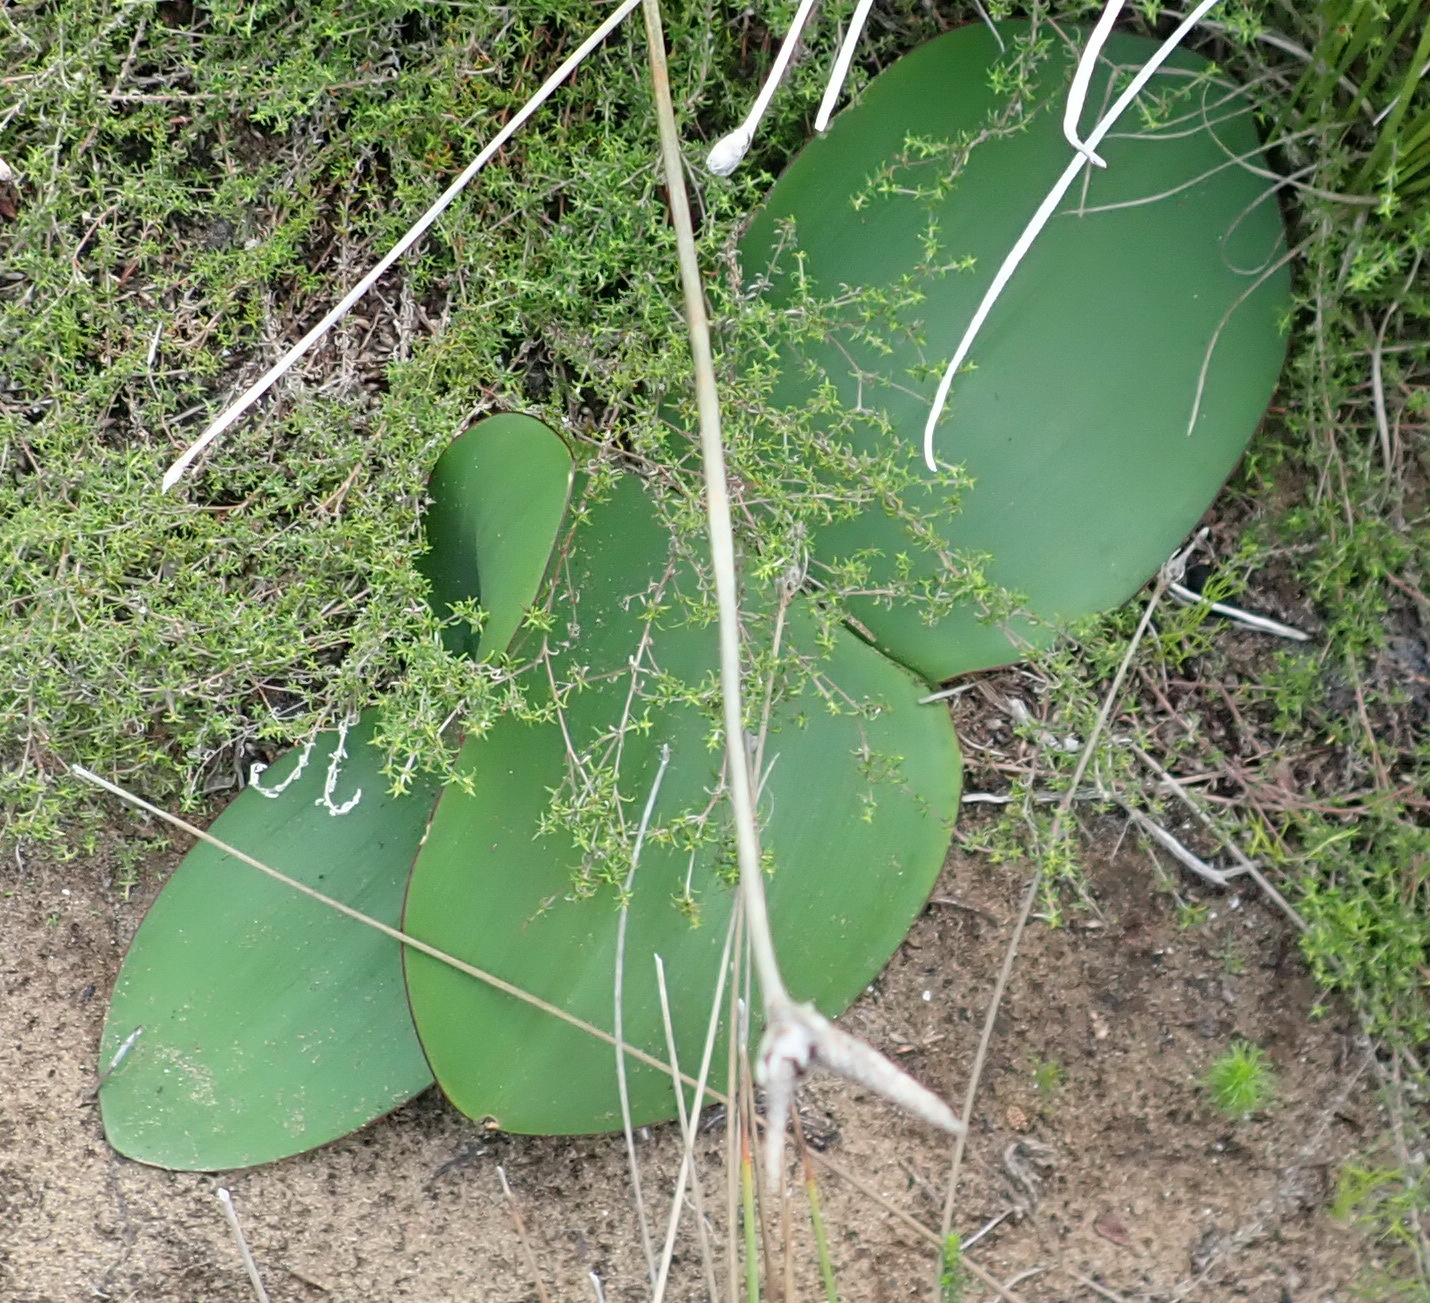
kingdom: Plantae
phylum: Tracheophyta
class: Liliopsida
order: Asparagales
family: Amaryllidaceae
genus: Haemanthus
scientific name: Haemanthus sanguineus
